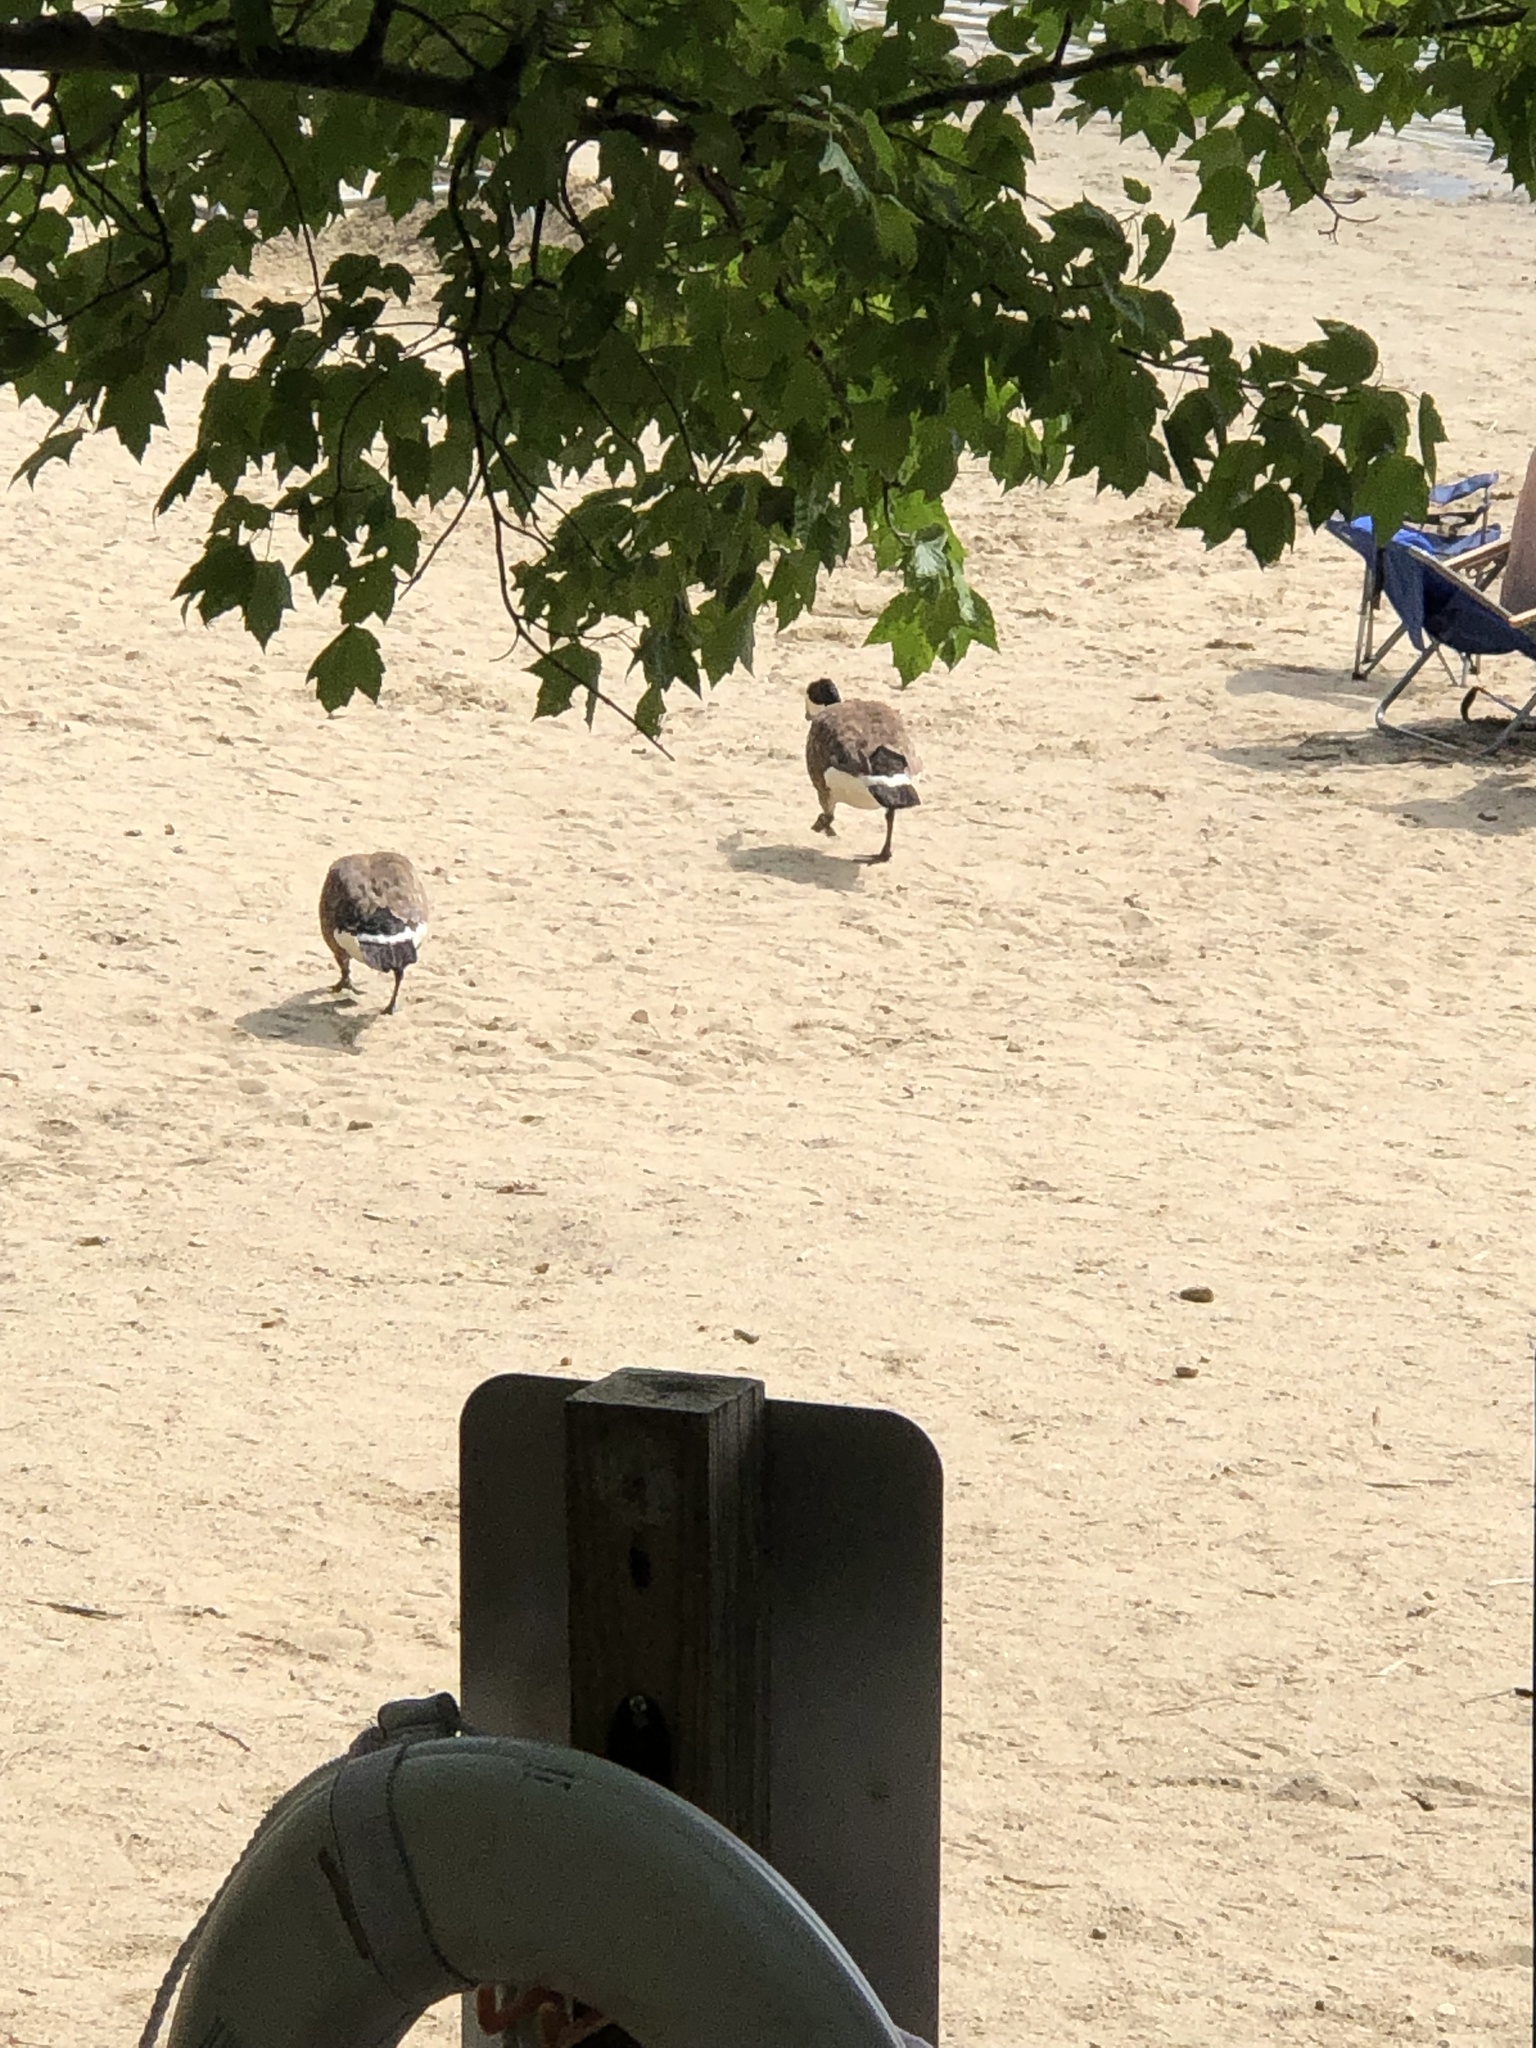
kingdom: Animalia
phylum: Chordata
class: Aves
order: Anseriformes
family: Anatidae
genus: Branta
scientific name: Branta canadensis
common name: Canada goose
